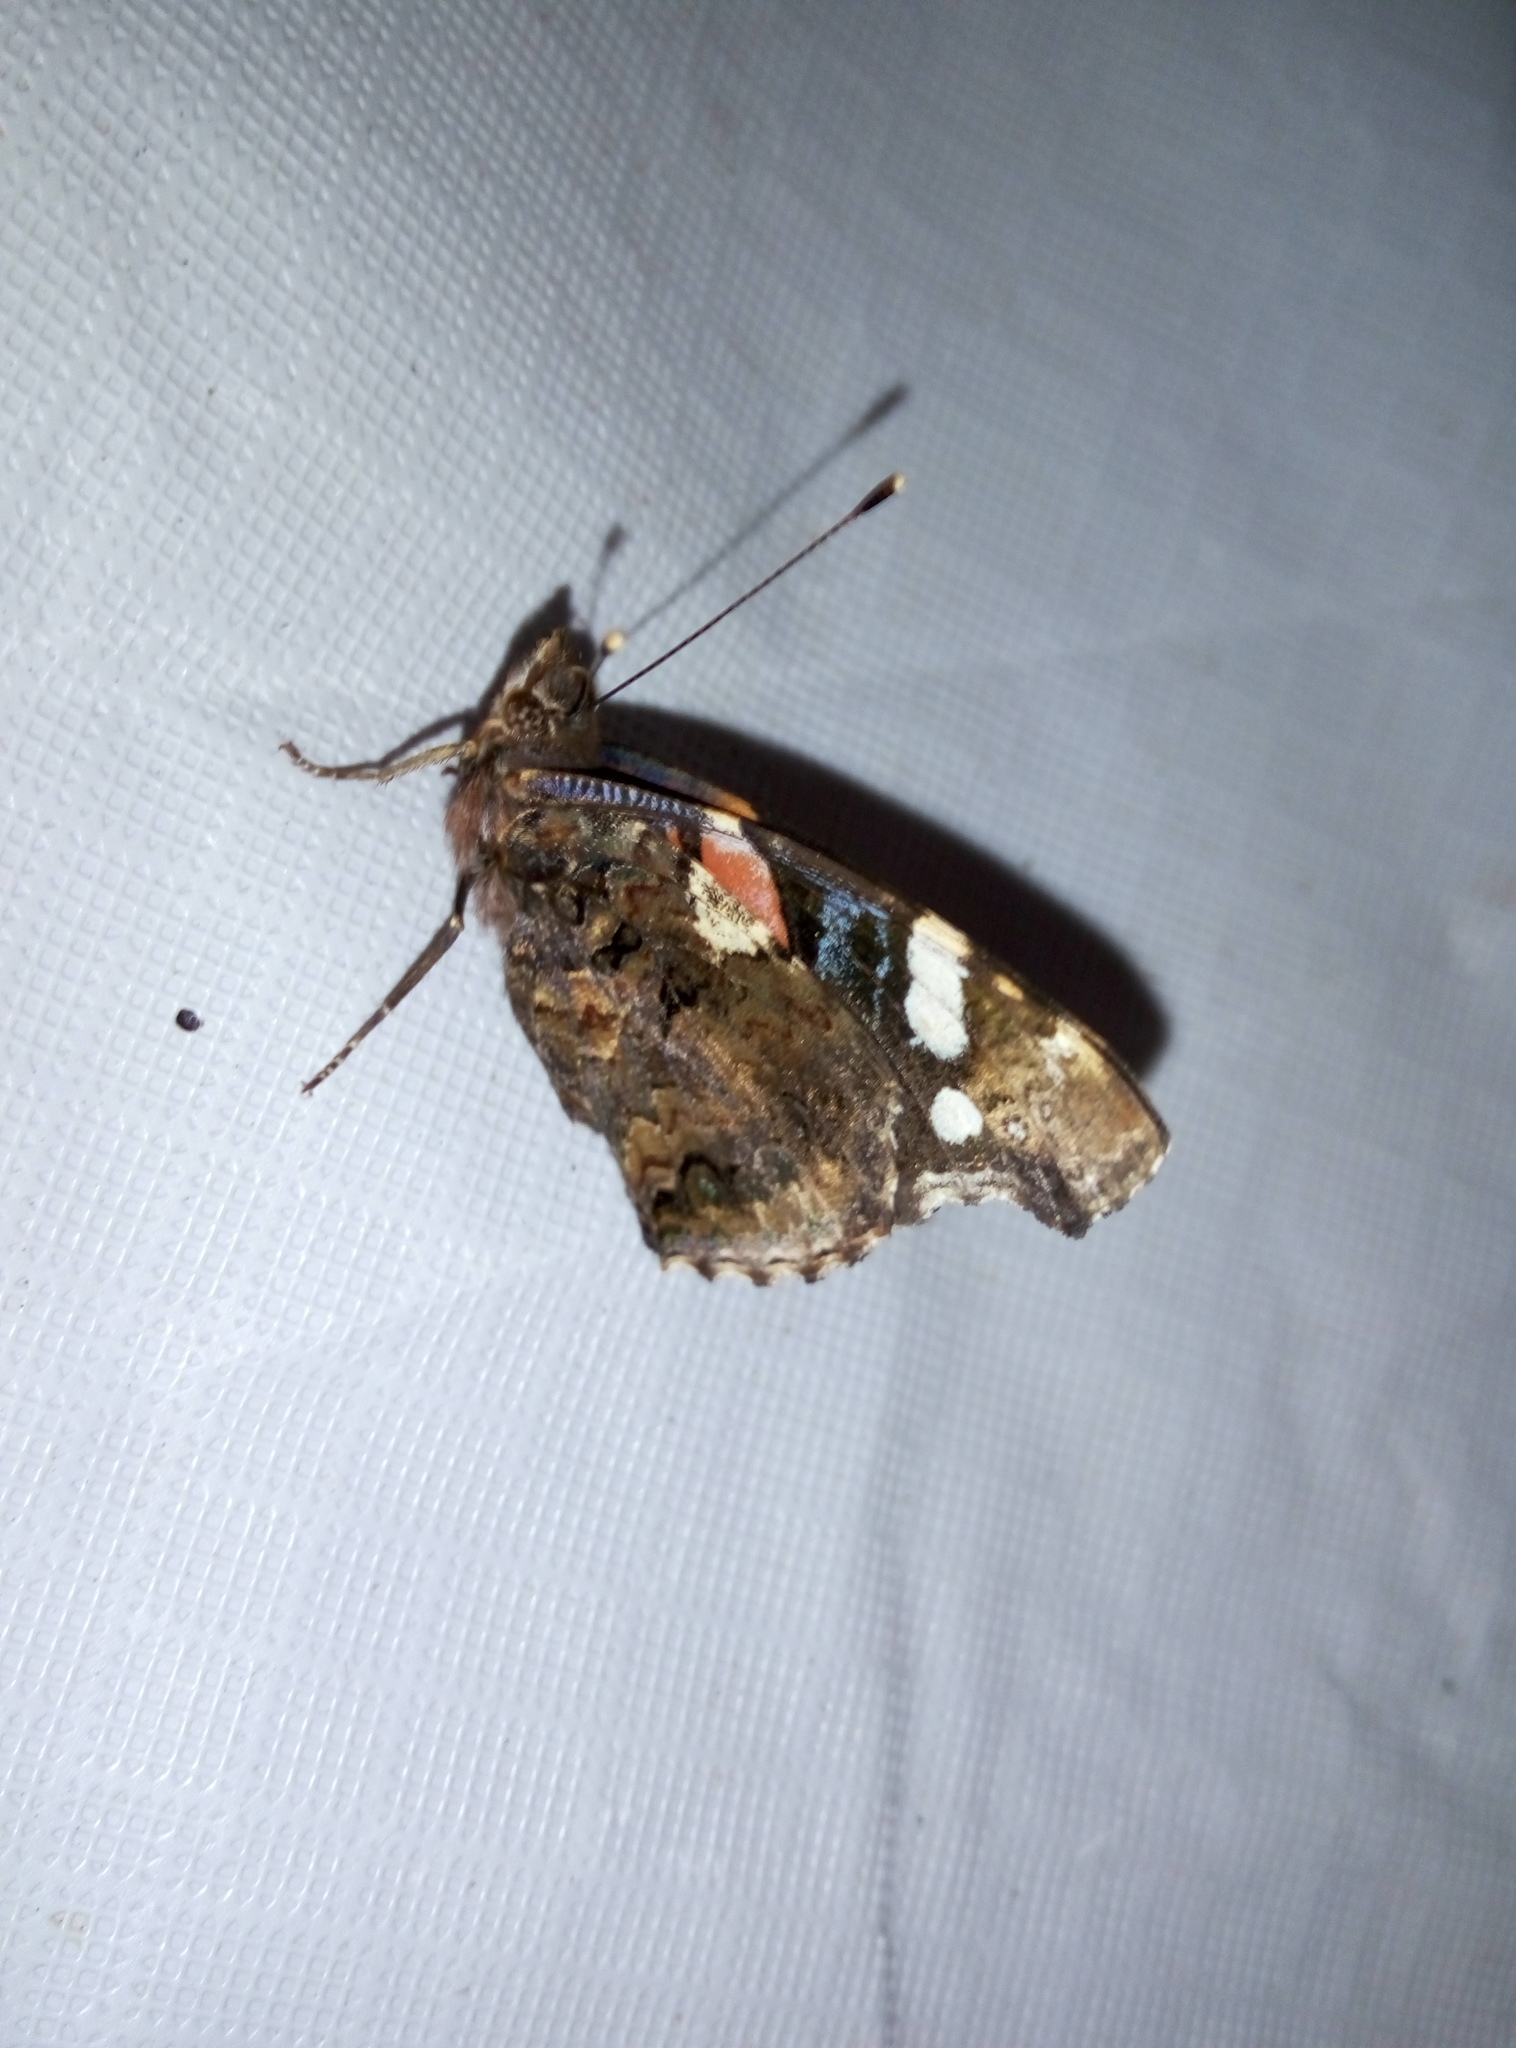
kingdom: Animalia
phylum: Arthropoda
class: Insecta
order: Lepidoptera
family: Nymphalidae
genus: Vanessa
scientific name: Vanessa atalanta
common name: Red admiral
